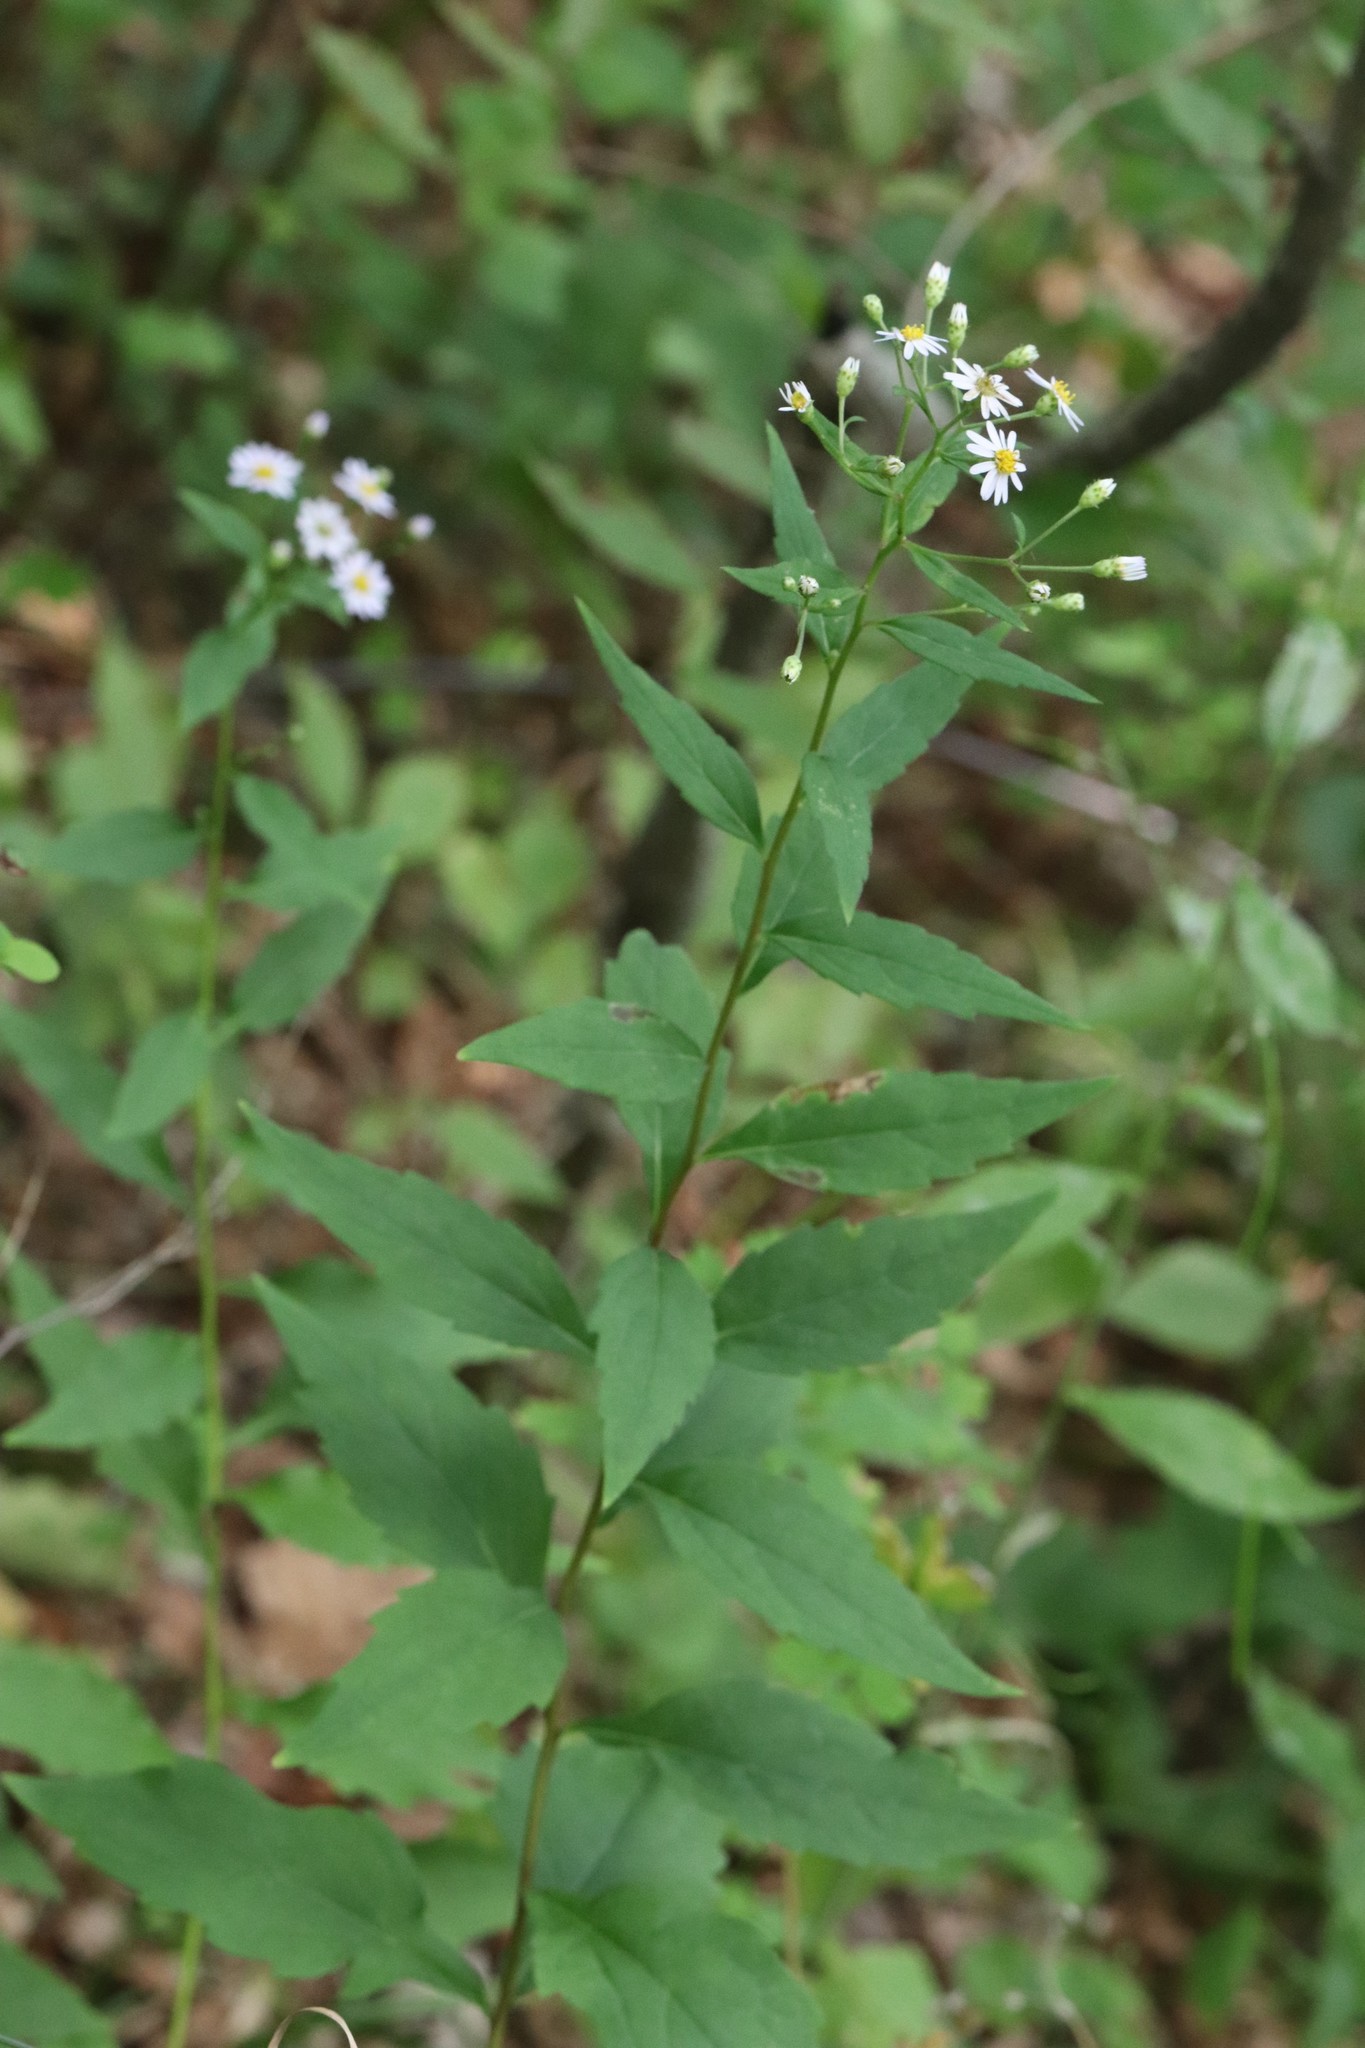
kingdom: Plantae
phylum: Tracheophyta
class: Magnoliopsida
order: Asterales
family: Asteraceae
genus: Aster
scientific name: Aster ageratoides
